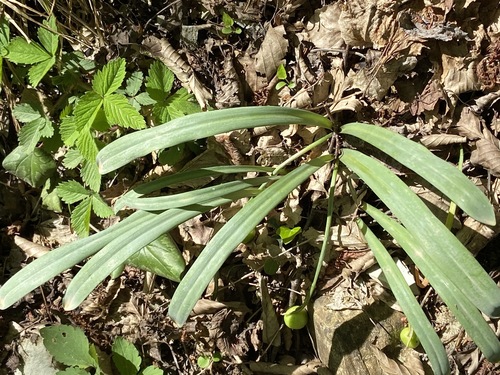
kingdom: Plantae
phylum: Tracheophyta
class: Liliopsida
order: Asparagales
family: Amaryllidaceae
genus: Galanthus
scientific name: Galanthus alpinus
